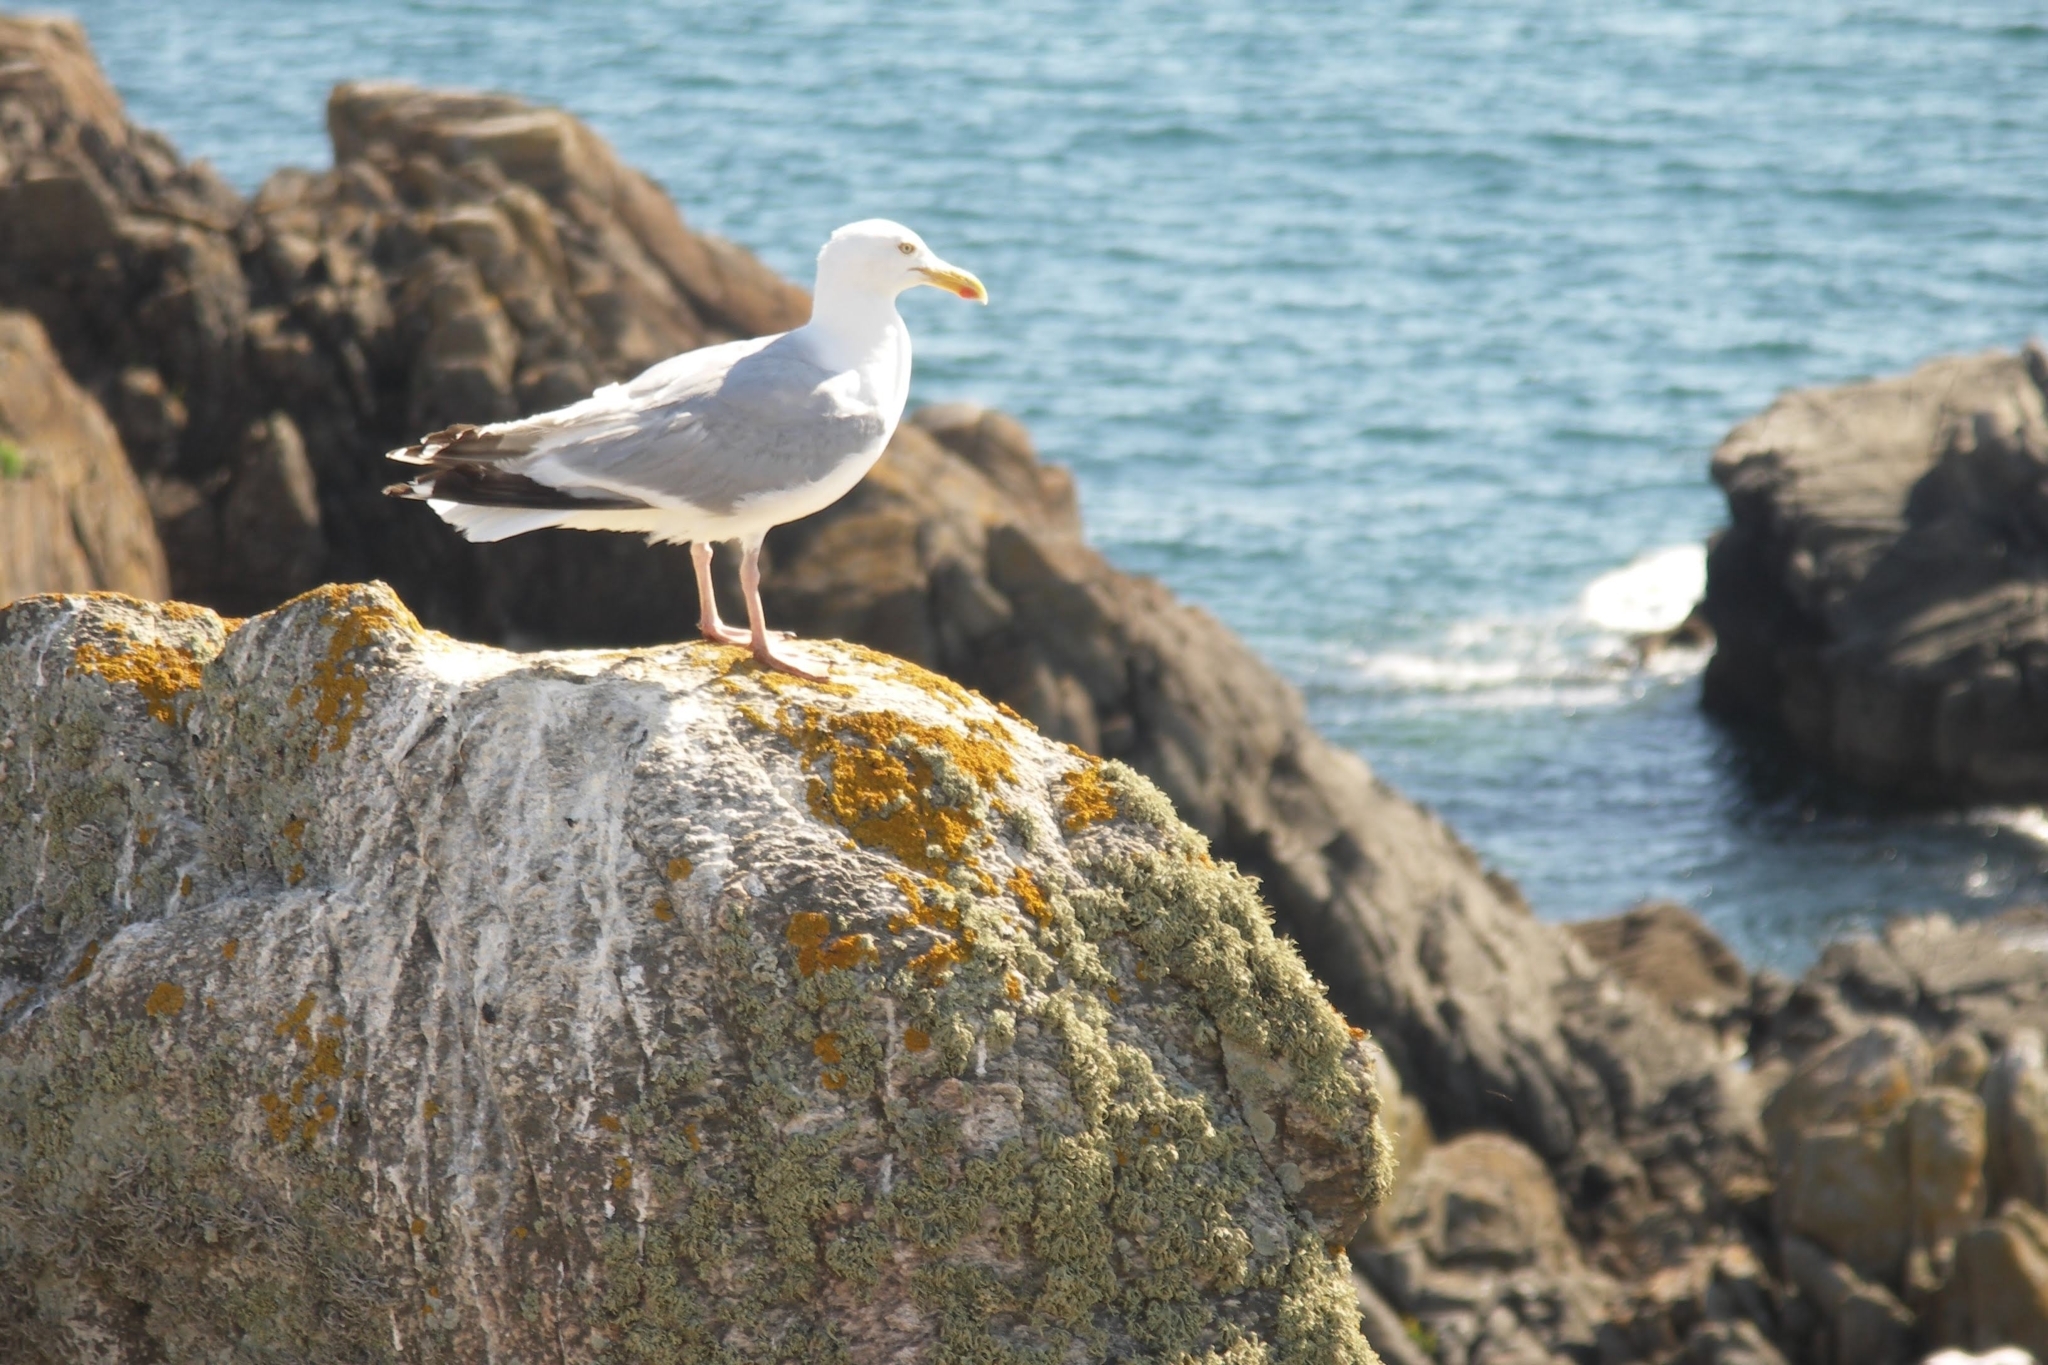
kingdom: Animalia
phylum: Chordata
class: Aves
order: Charadriiformes
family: Laridae
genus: Larus
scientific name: Larus argentatus
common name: Herring gull
